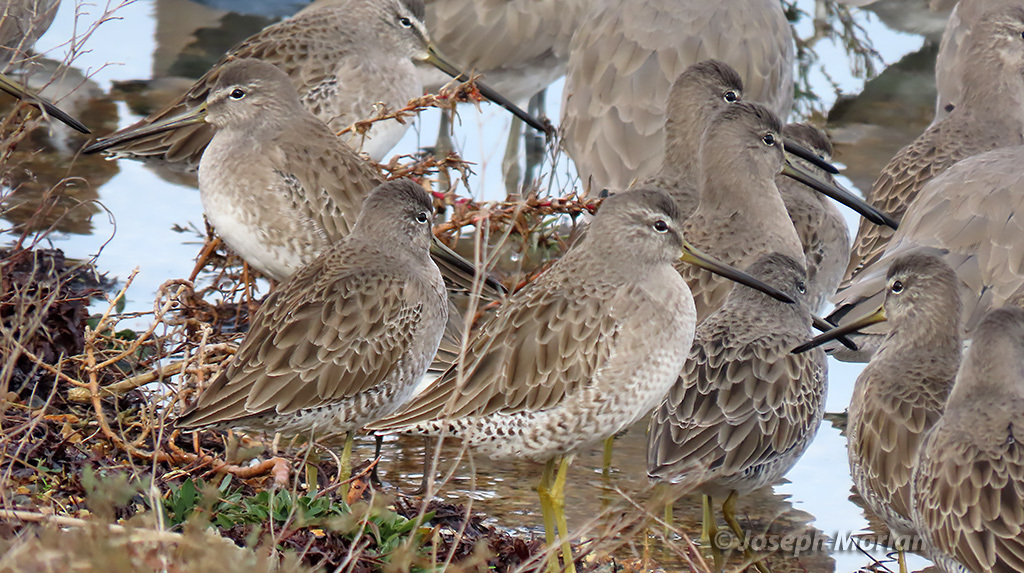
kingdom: Animalia
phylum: Chordata
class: Aves
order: Charadriiformes
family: Scolopacidae
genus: Limnodromus
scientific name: Limnodromus scolopaceus
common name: Long-billed dowitcher
